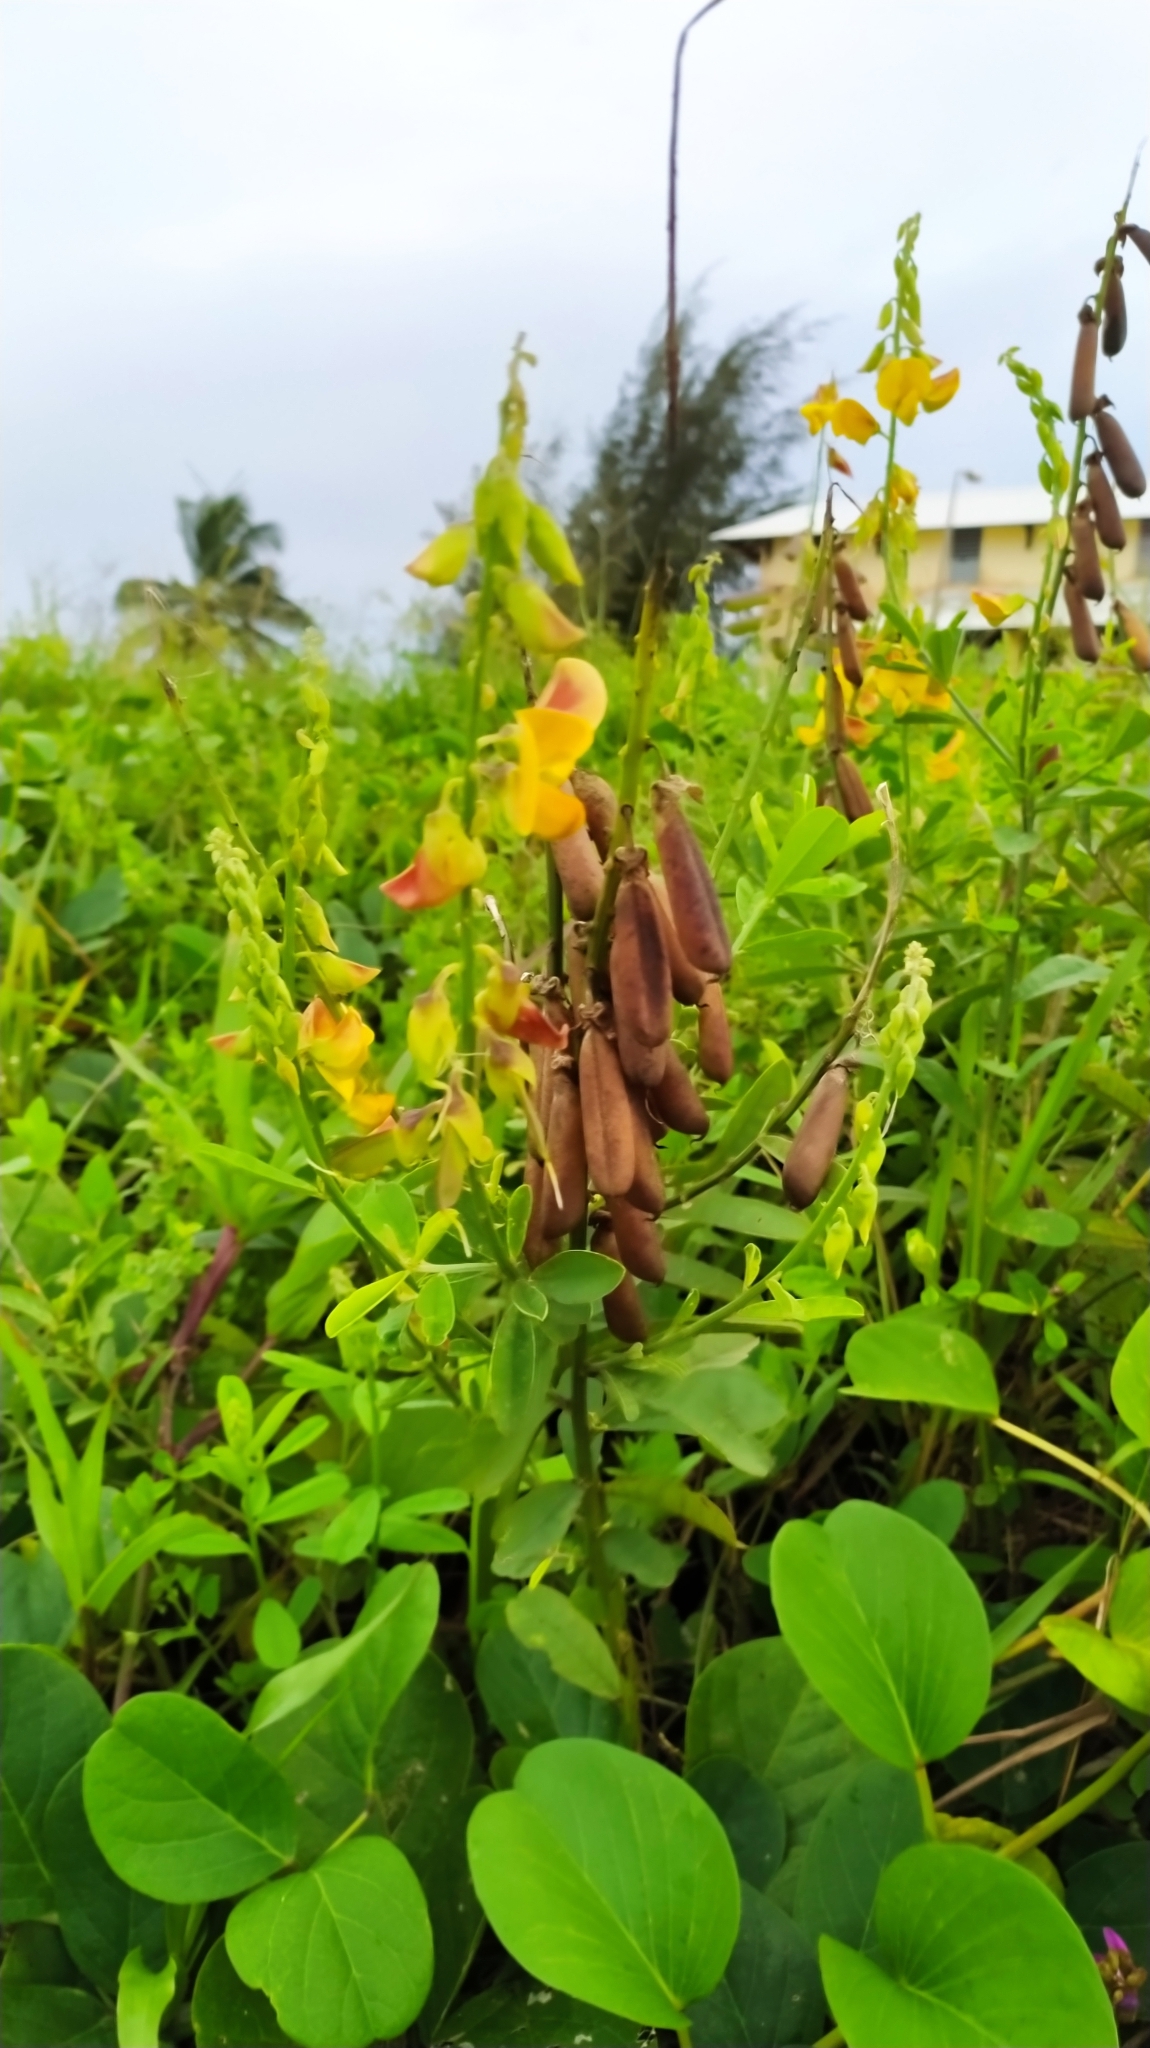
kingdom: Plantae
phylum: Tracheophyta
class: Magnoliopsida
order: Fabales
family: Fabaceae
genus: Crotalaria
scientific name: Crotalaria retusa
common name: Rattleweed
